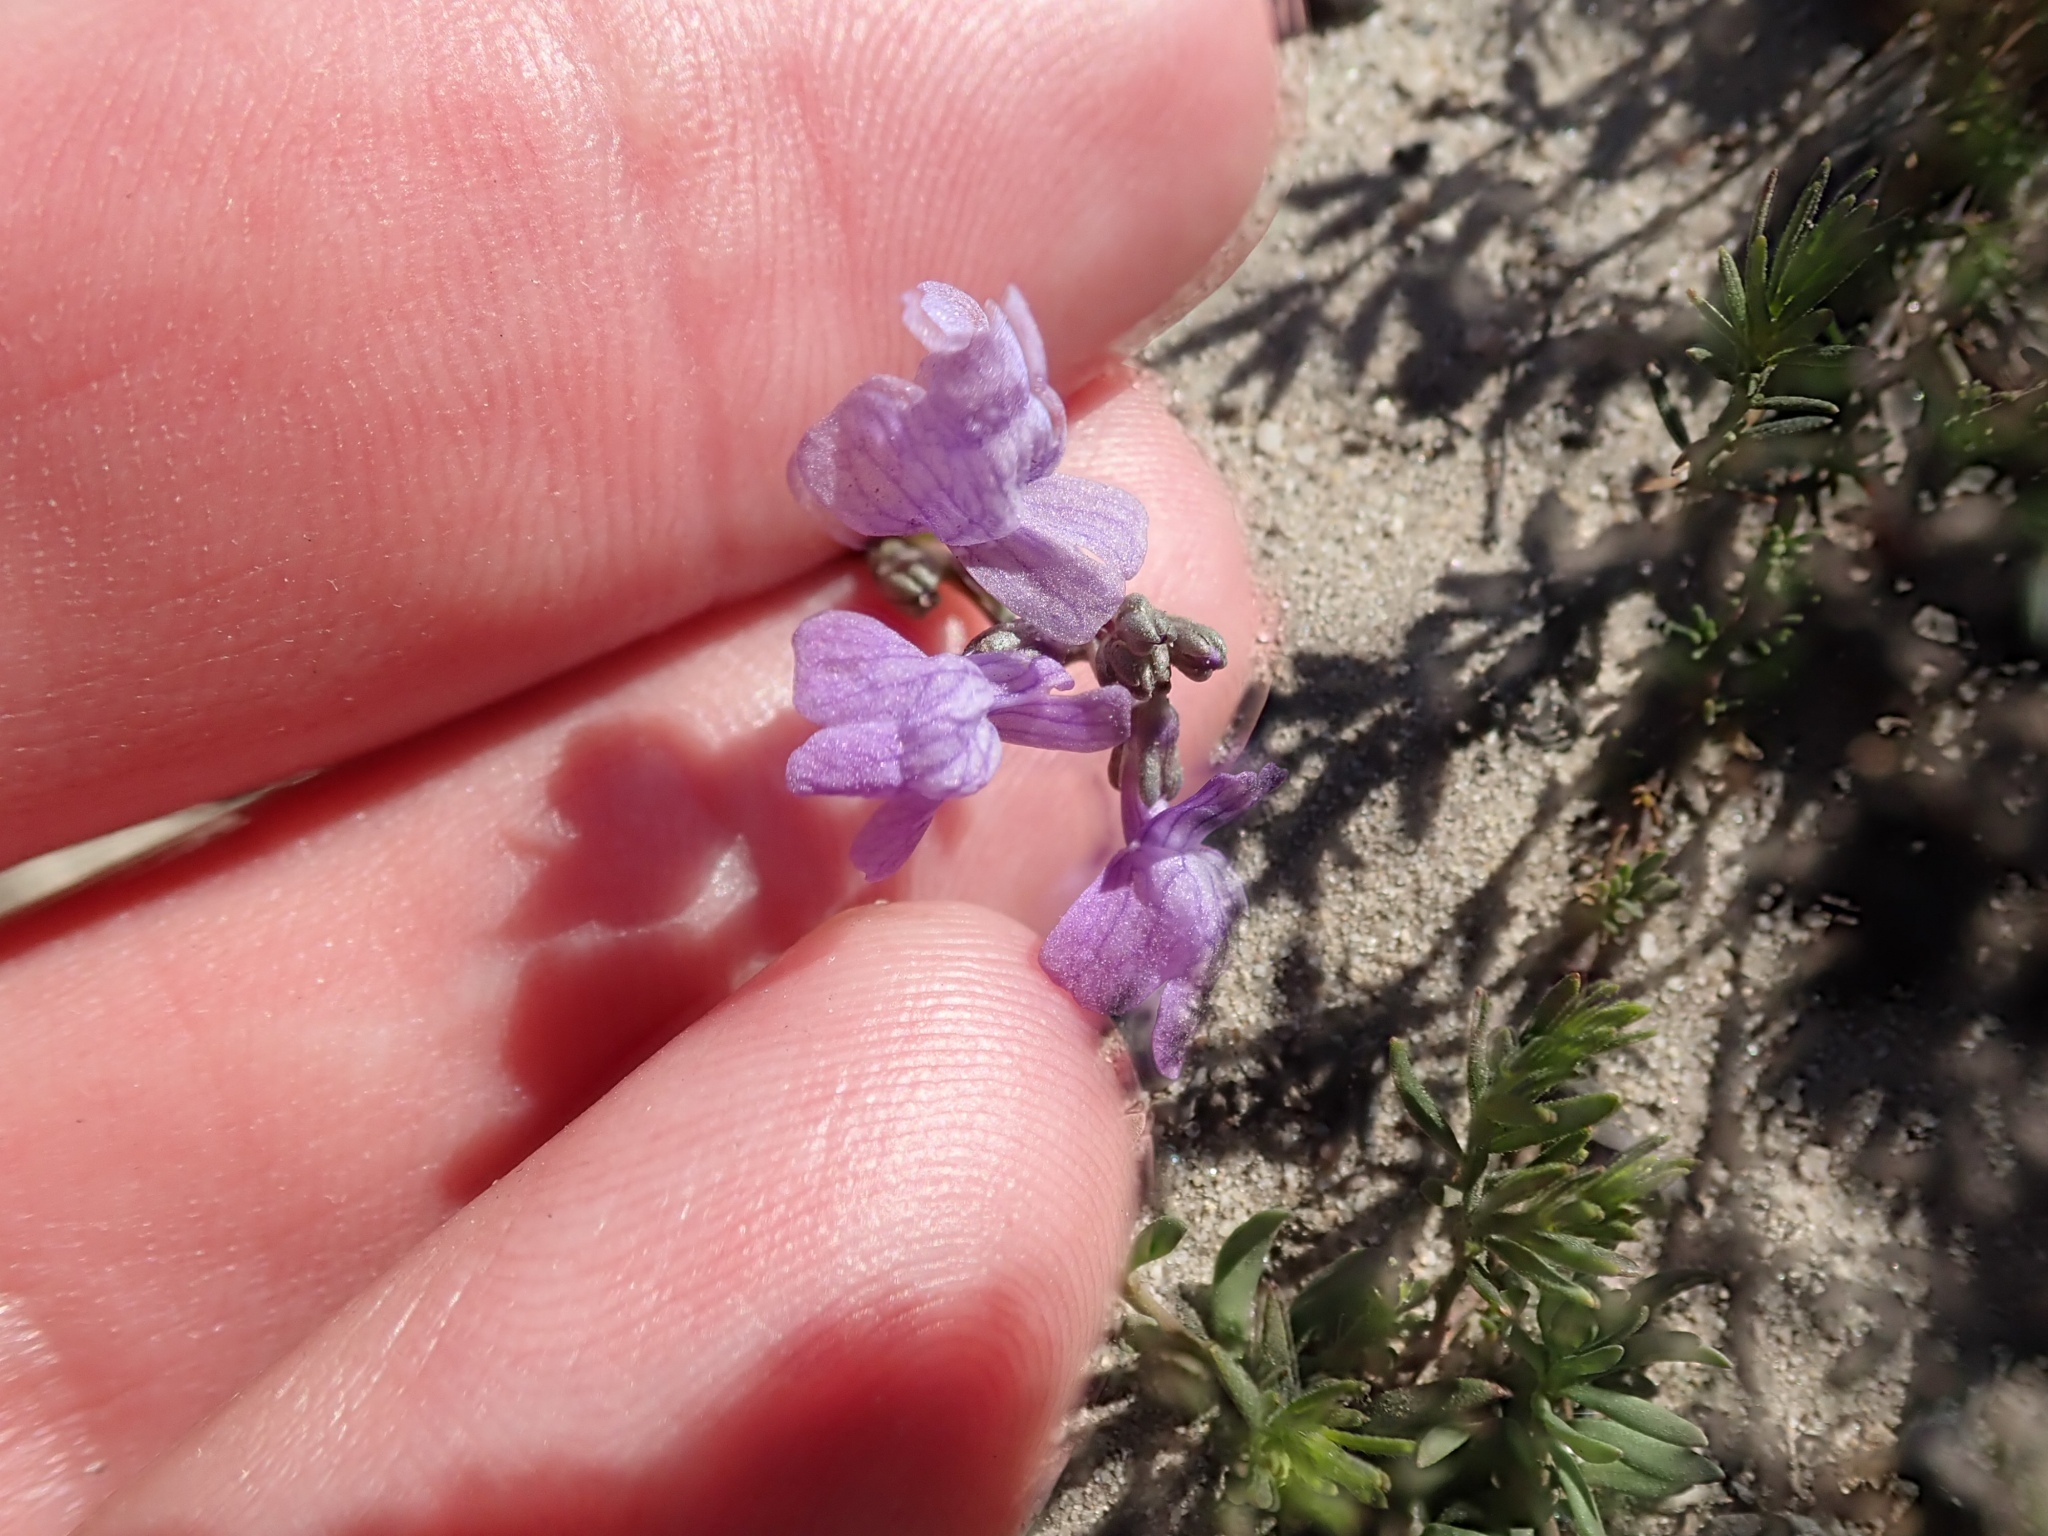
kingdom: Plantae
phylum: Tracheophyta
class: Magnoliopsida
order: Lamiales
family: Plantaginaceae
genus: Nuttallanthus
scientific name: Nuttallanthus texanus
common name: Texas toadflax
